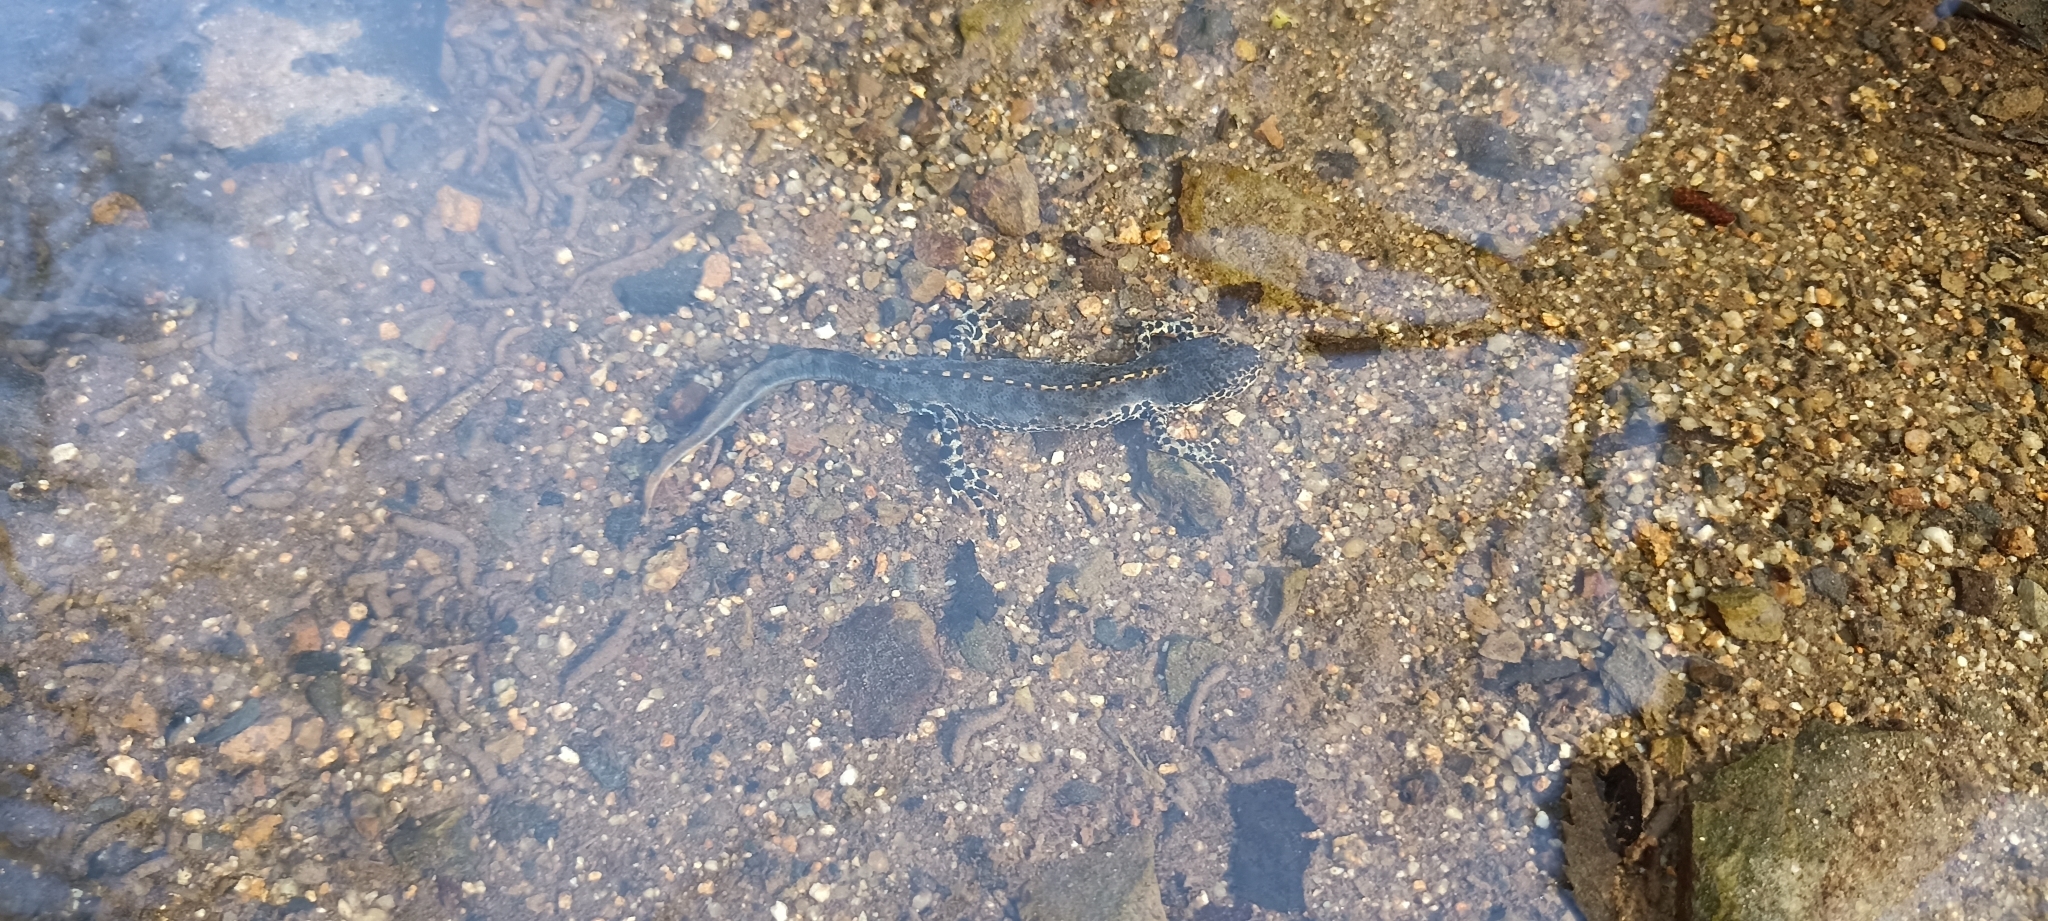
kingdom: Animalia
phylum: Chordata
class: Amphibia
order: Caudata
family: Salamandridae
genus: Ichthyosaura
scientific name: Ichthyosaura alpestris
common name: Alpine newt
